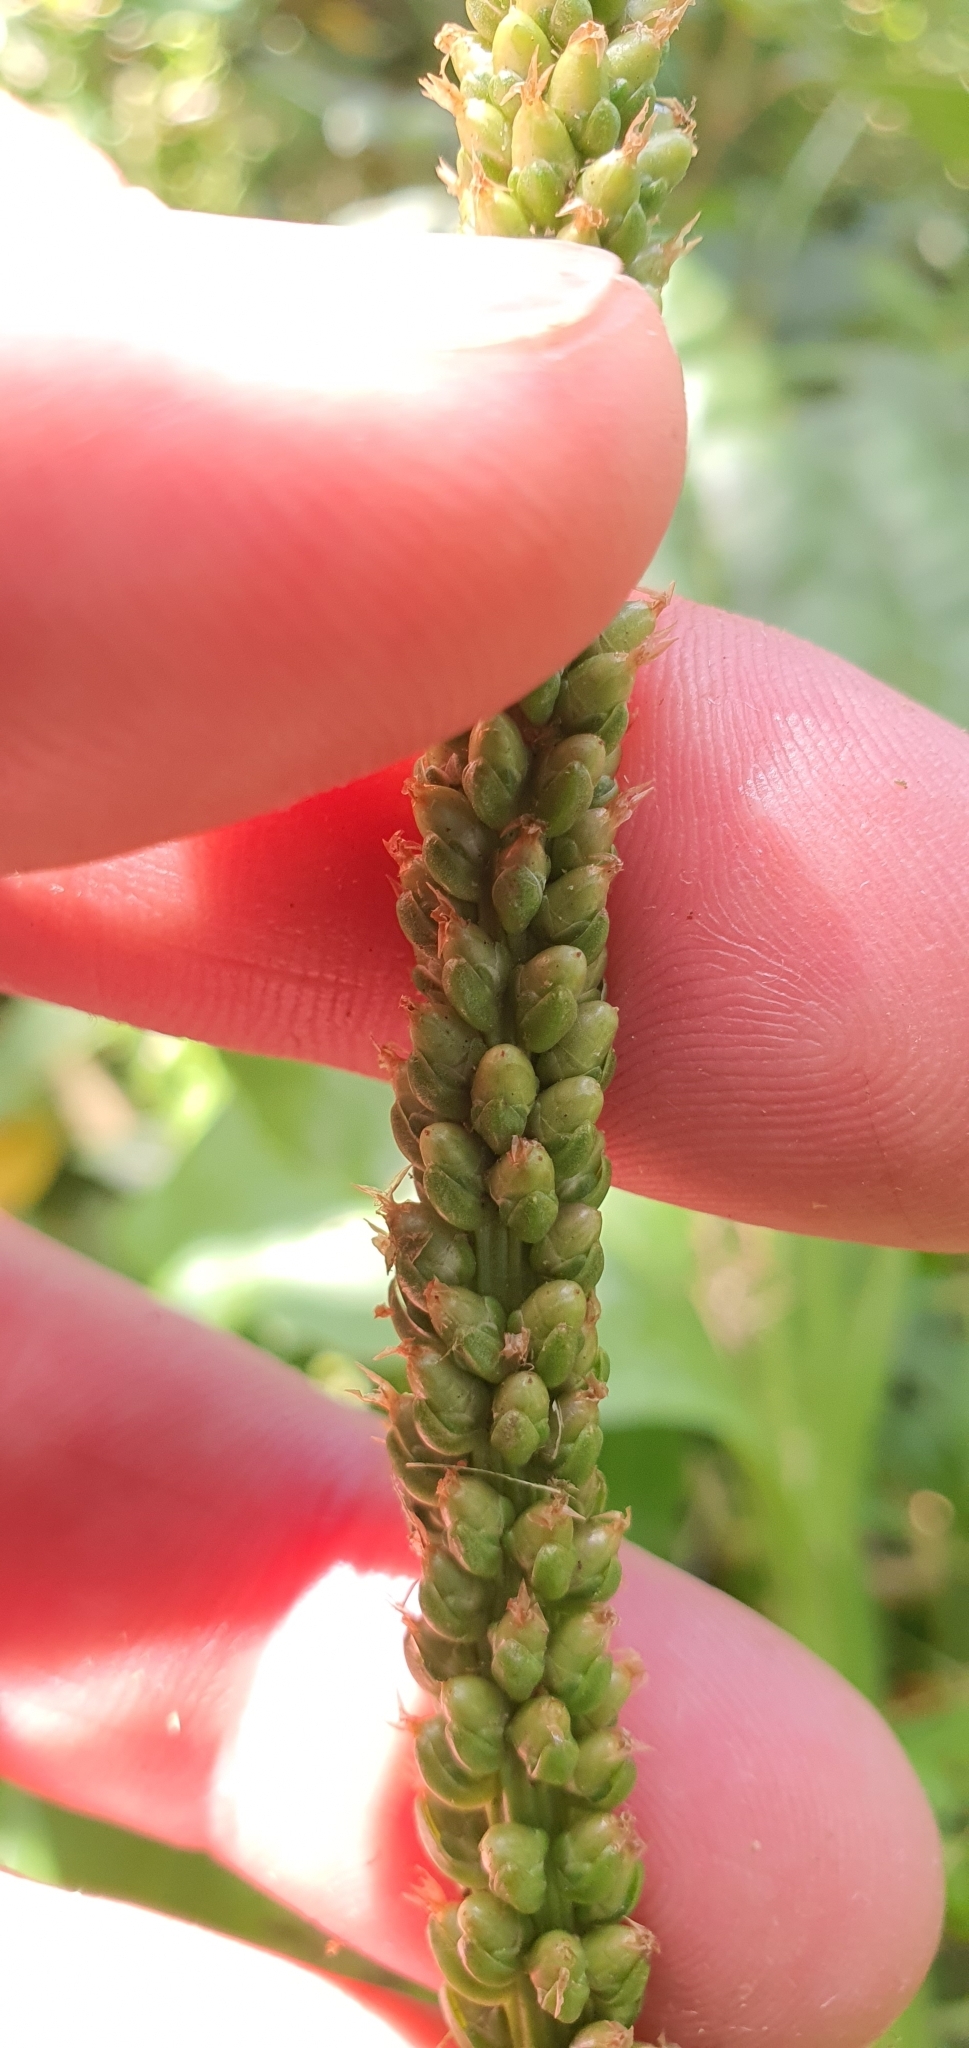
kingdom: Plantae
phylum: Tracheophyta
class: Magnoliopsida
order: Lamiales
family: Plantaginaceae
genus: Plantago
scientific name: Plantago major
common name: Common plantain
